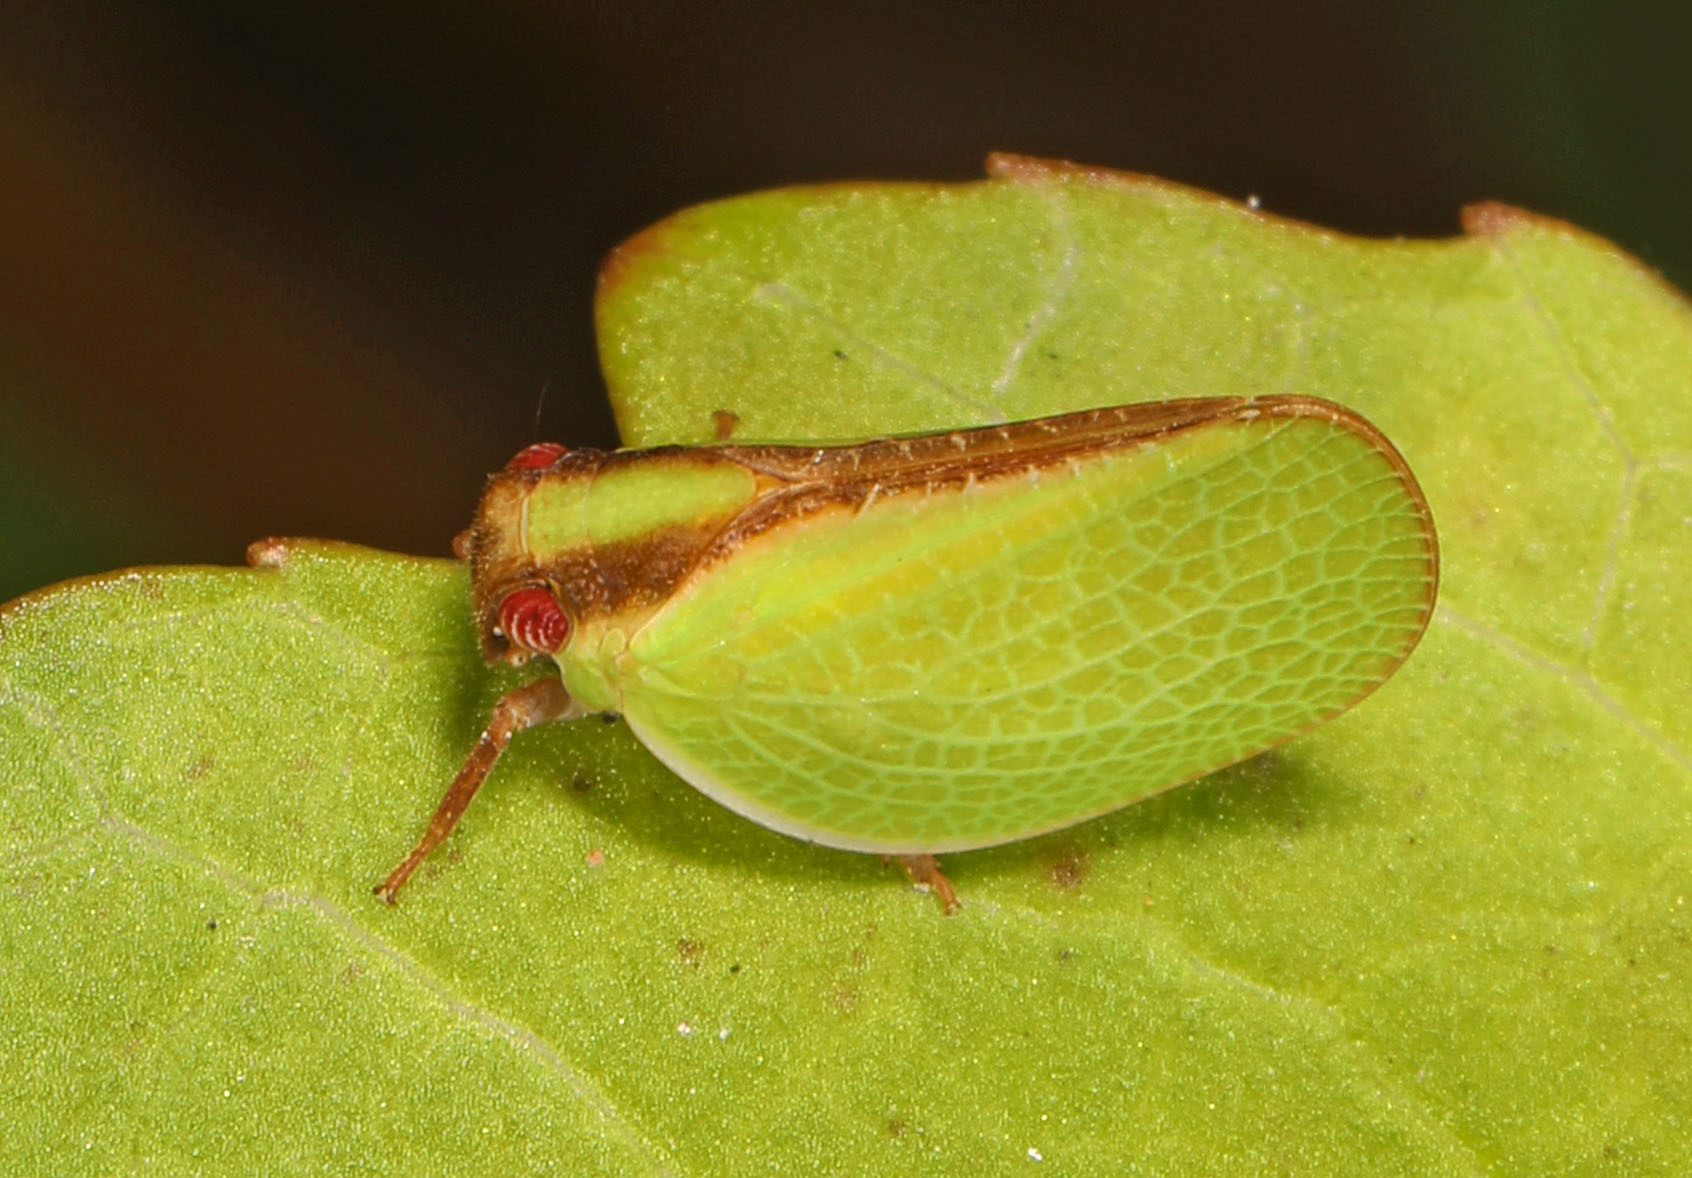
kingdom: Animalia
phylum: Arthropoda
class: Insecta
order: Hemiptera
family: Acanaloniidae
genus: Acanalonia
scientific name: Acanalonia bivittata
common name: Two-striped planthopper
